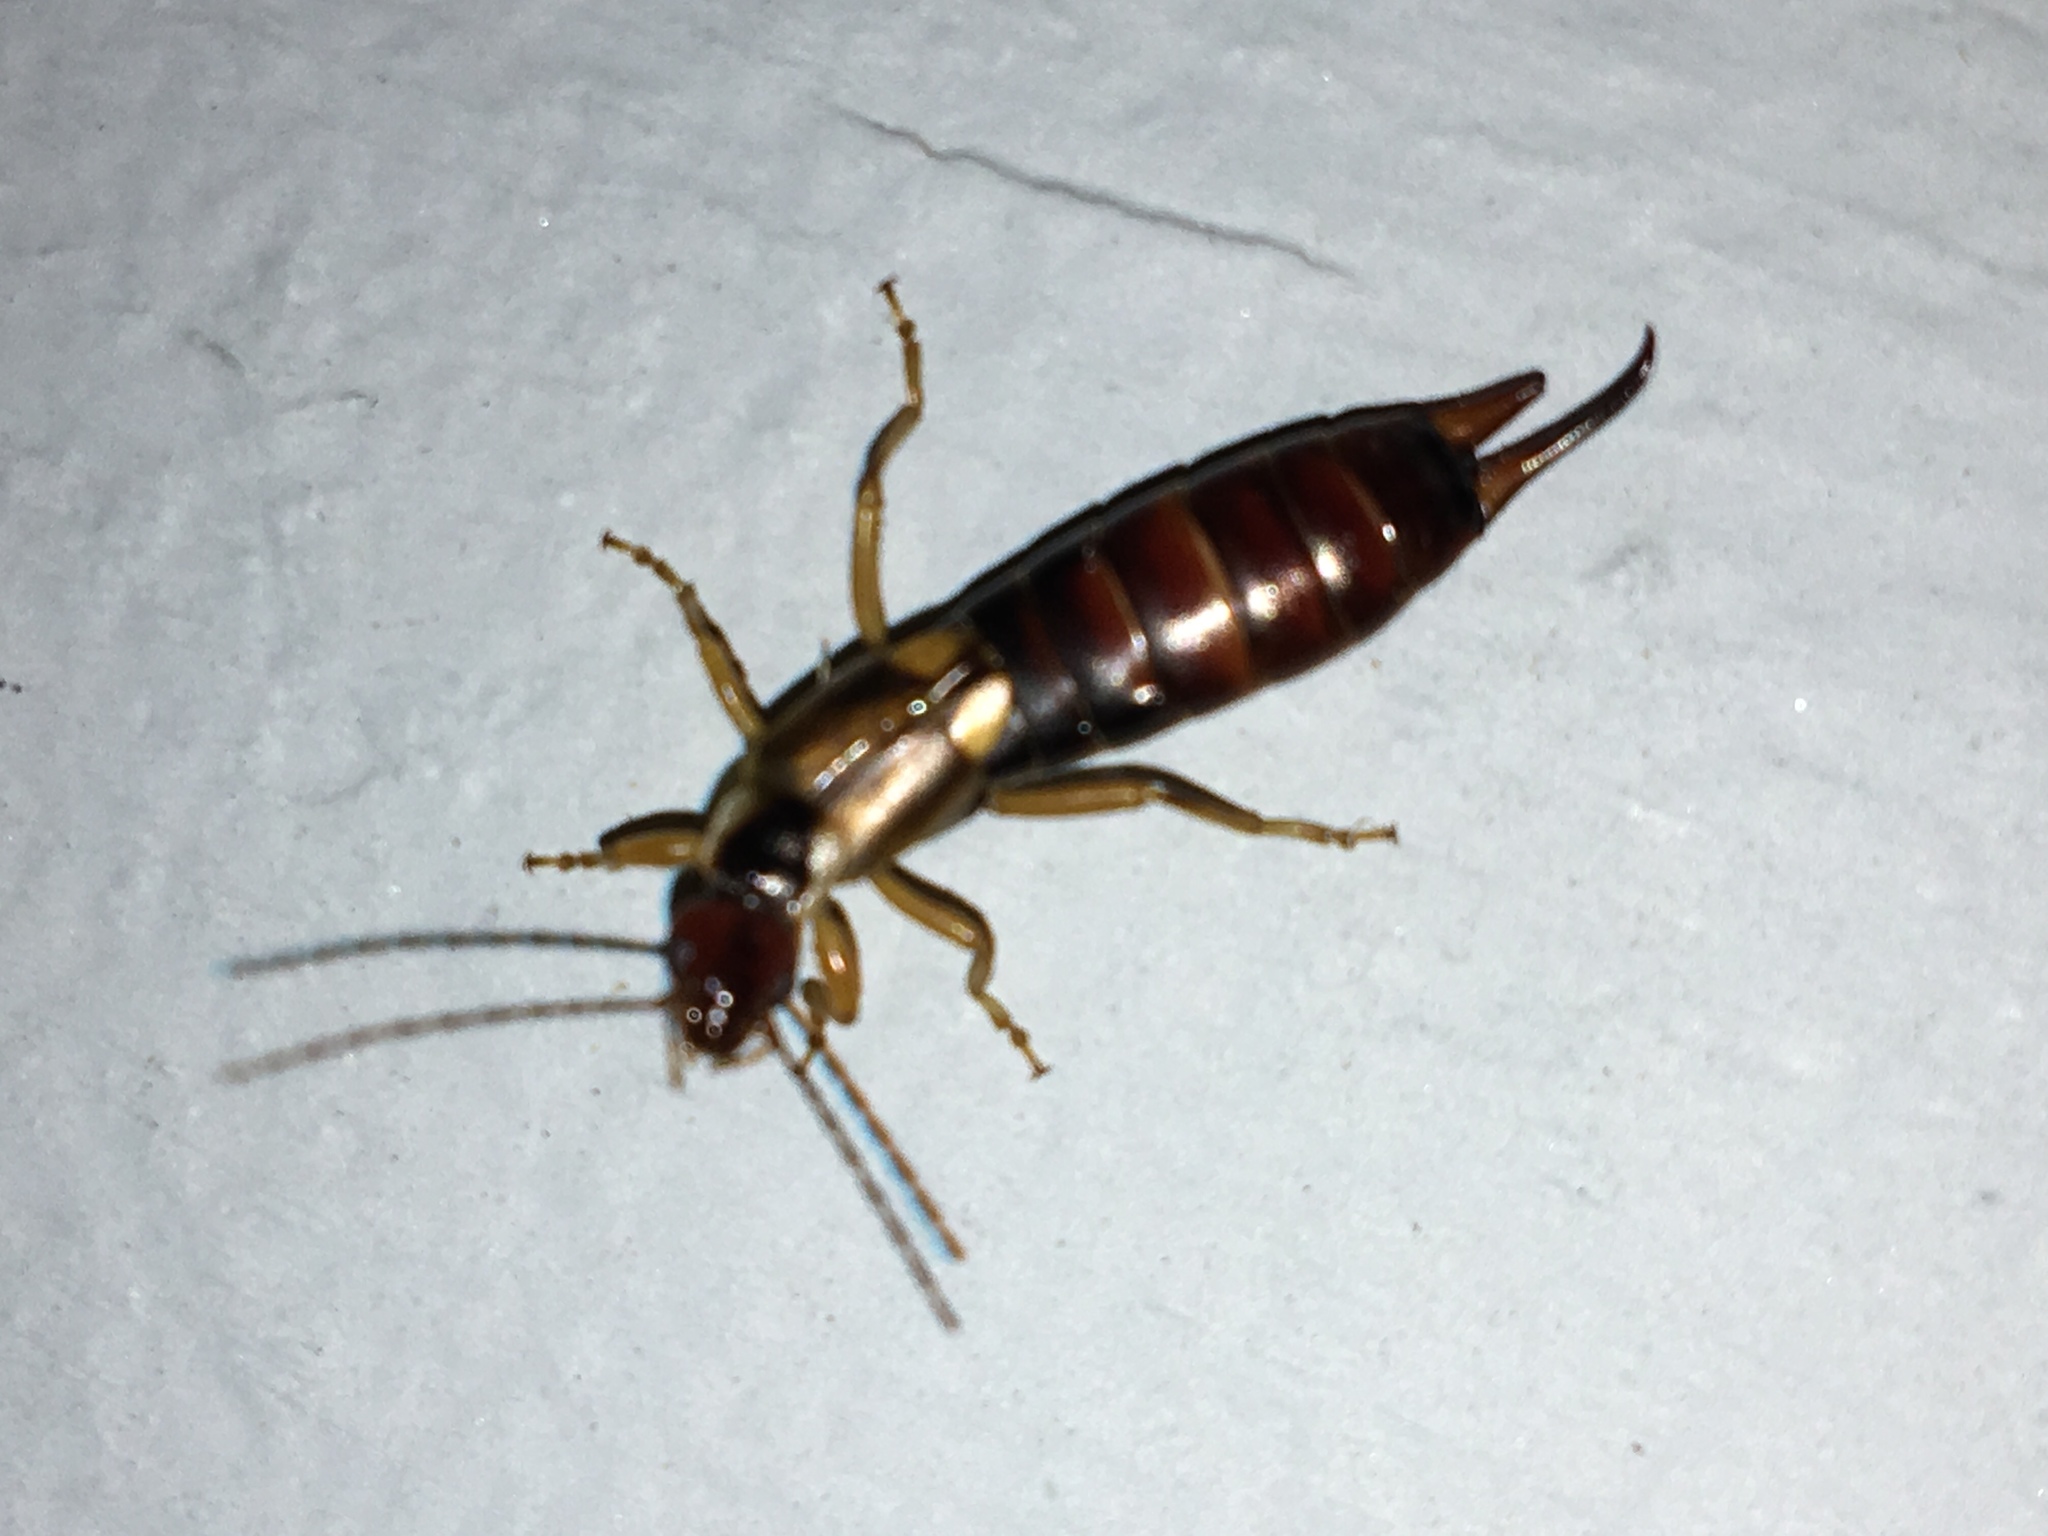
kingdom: Animalia
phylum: Arthropoda
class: Insecta
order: Dermaptera
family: Forficulidae
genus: Forficula
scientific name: Forficula
